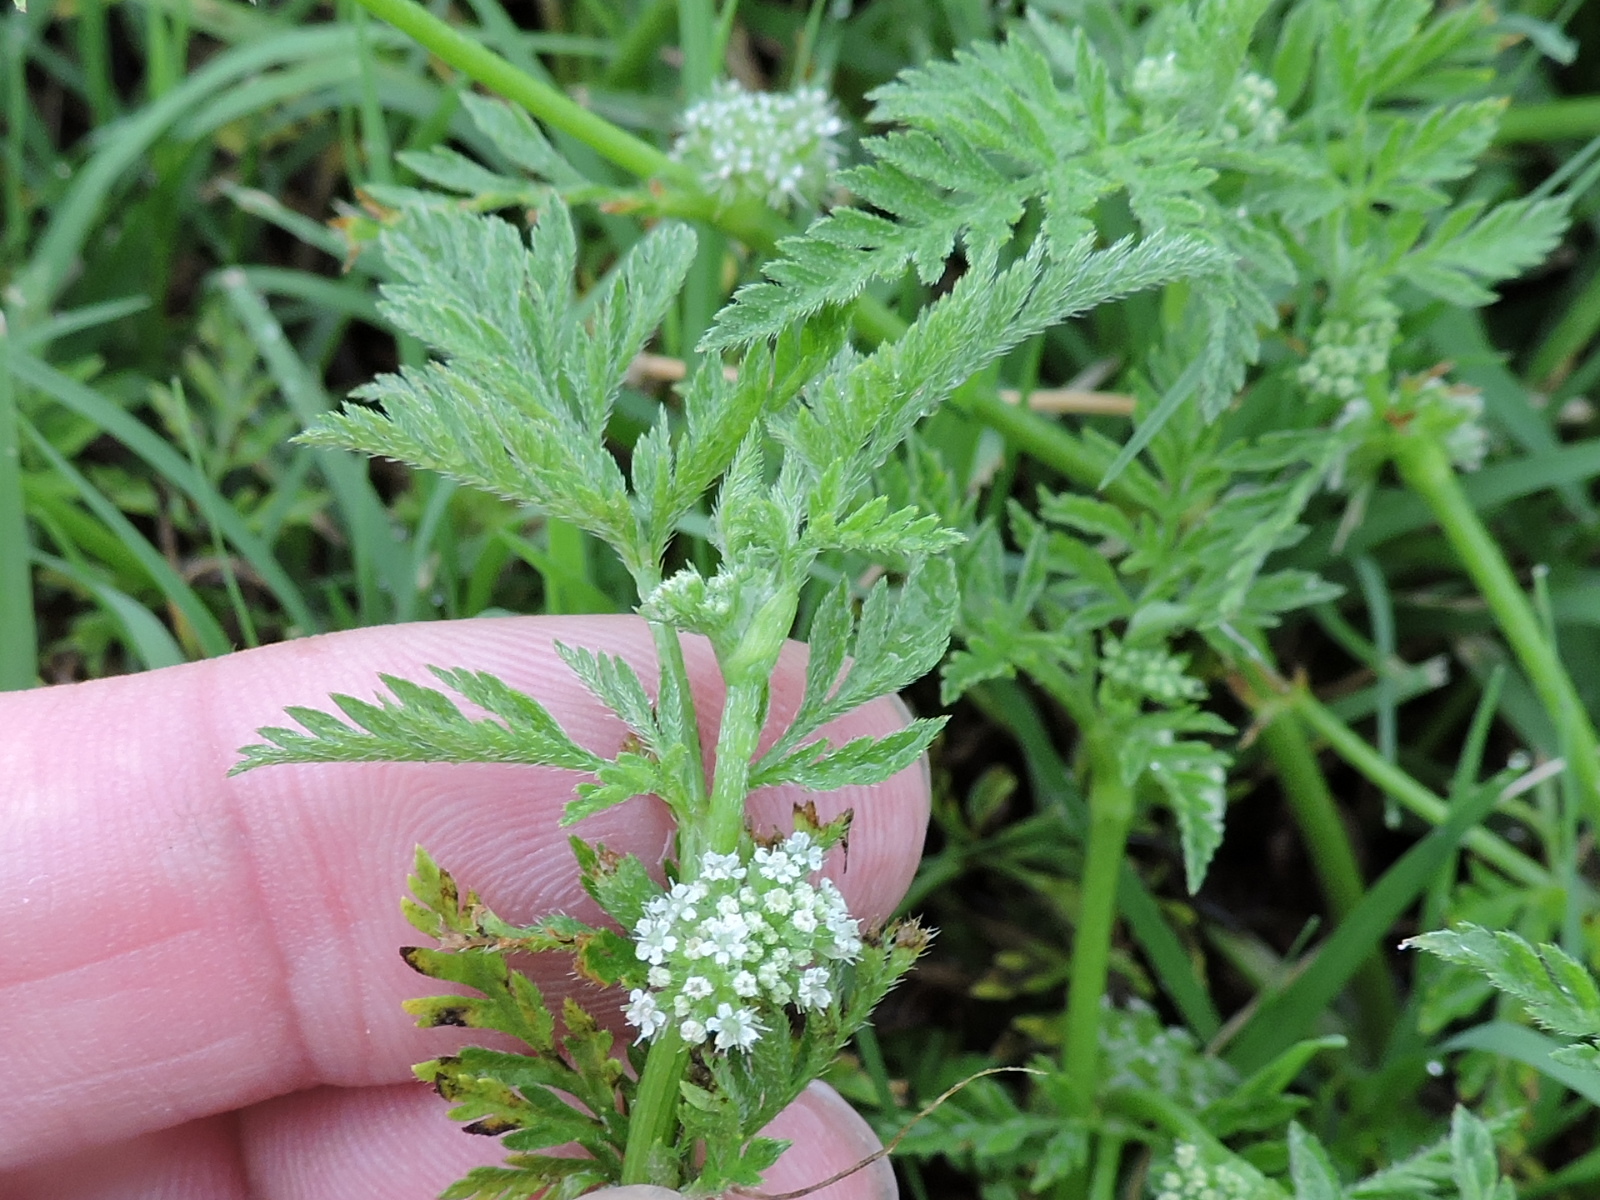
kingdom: Plantae
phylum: Tracheophyta
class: Magnoliopsida
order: Apiales
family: Apiaceae
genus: Torilis
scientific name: Torilis nodosa
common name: Knotted hedge-parsley
